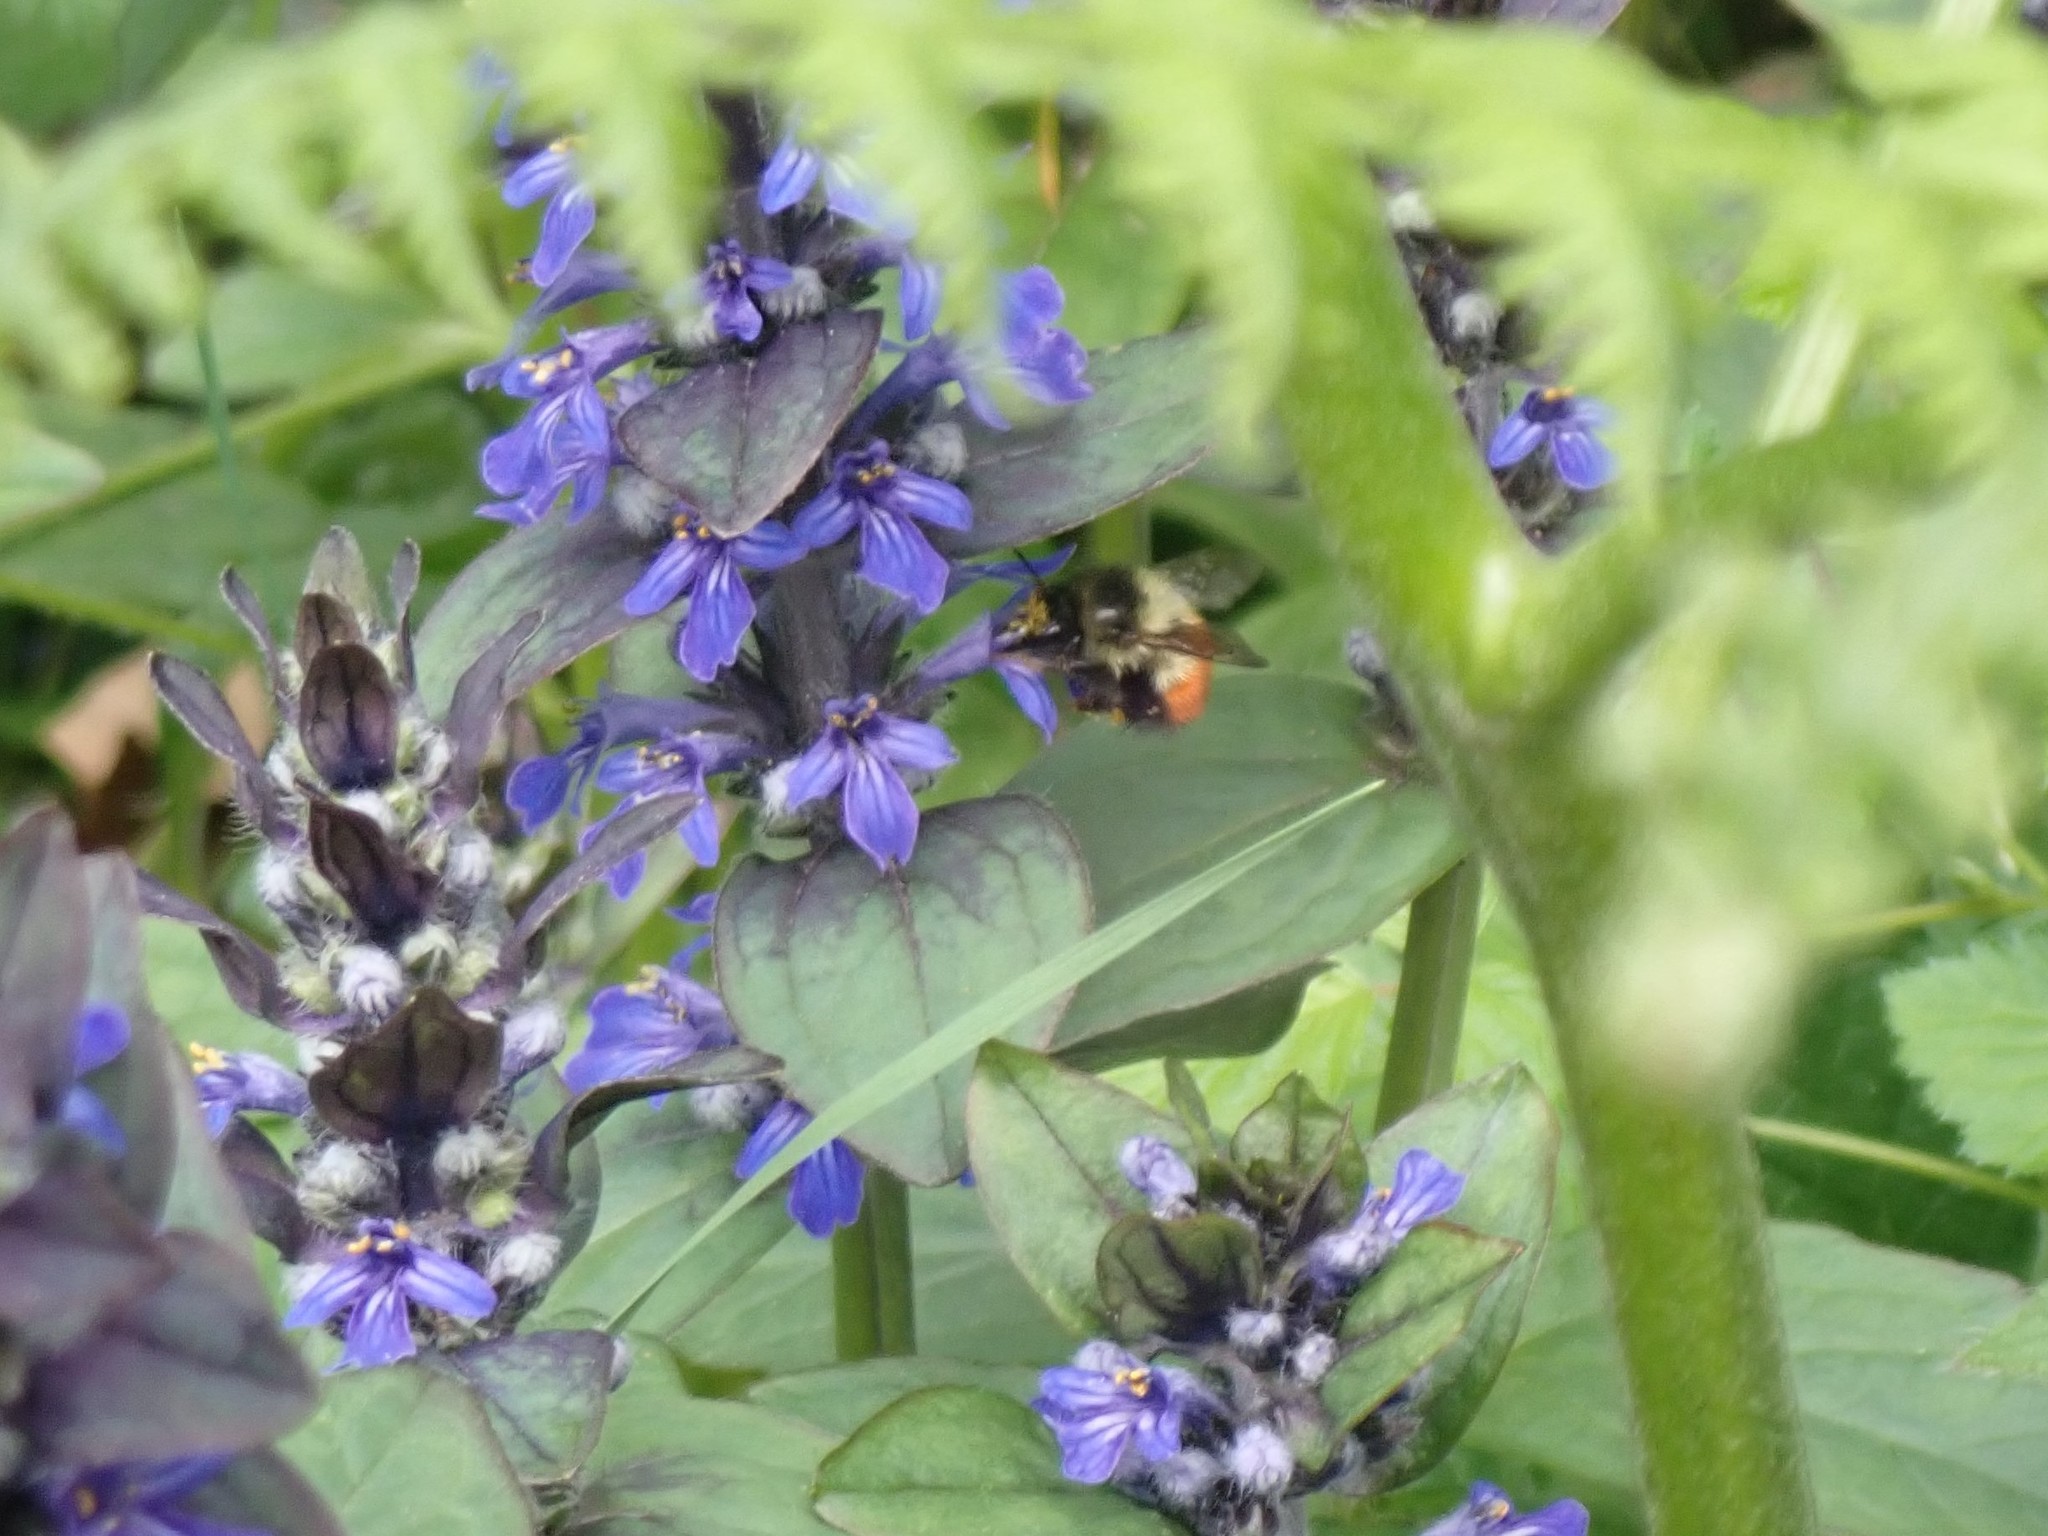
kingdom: Animalia
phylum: Arthropoda
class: Insecta
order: Hymenoptera
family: Apidae
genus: Bombus
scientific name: Bombus melanopygus
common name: Black tail bumble bee
